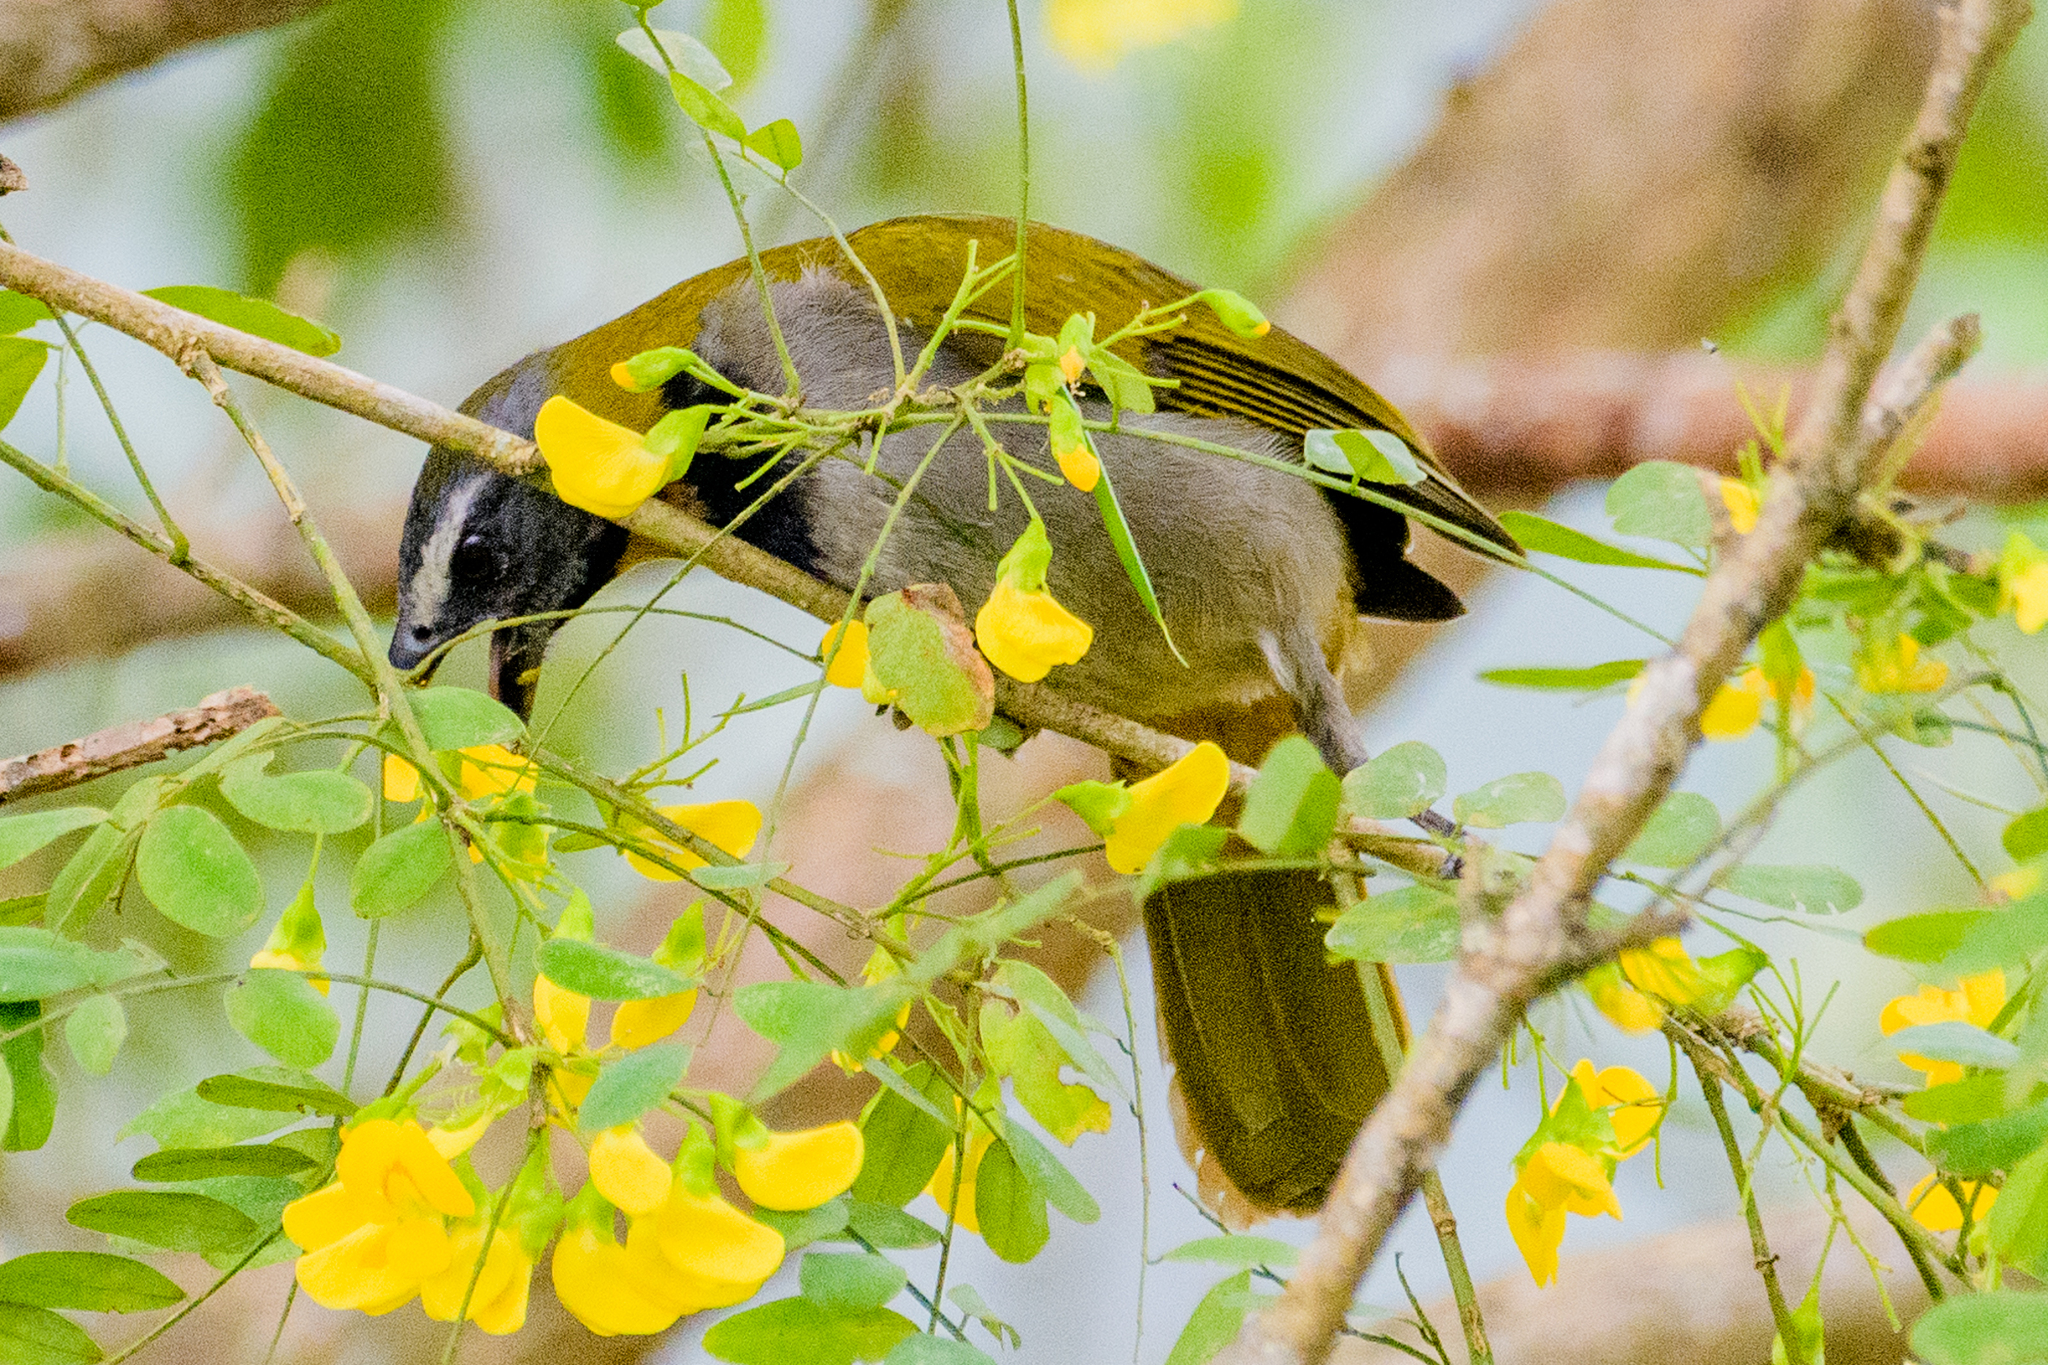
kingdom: Animalia
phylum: Chordata
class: Aves
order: Passeriformes
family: Thraupidae
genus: Saltator
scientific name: Saltator maximus
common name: Buff-throated saltator
